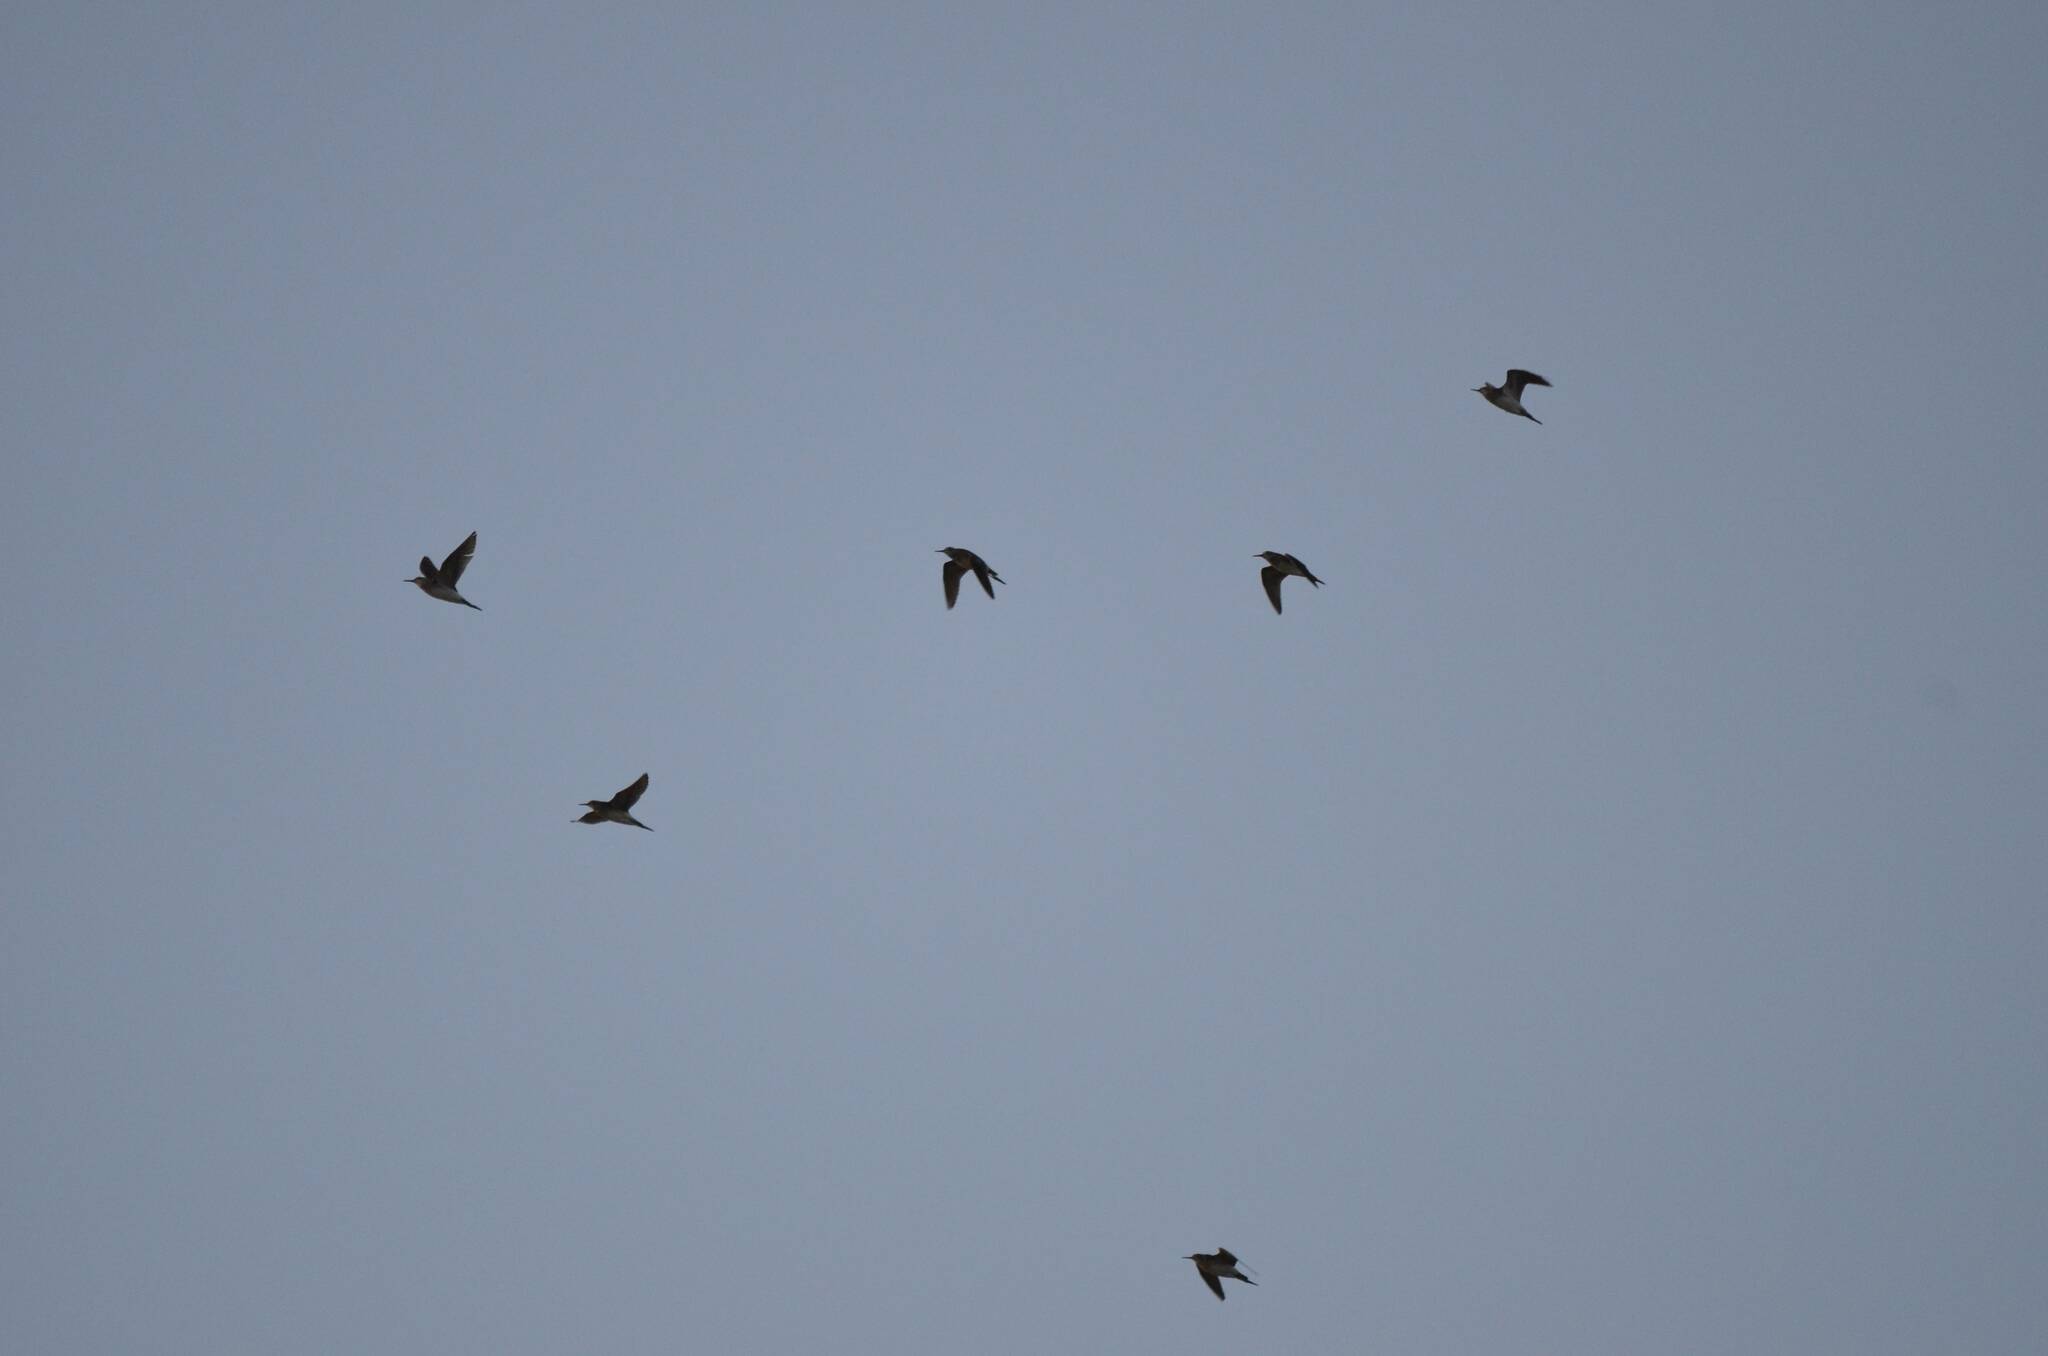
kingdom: Animalia
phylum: Chordata
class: Aves
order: Charadriiformes
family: Scolopacidae
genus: Calidris
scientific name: Calidris pugnax
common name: Ruff
